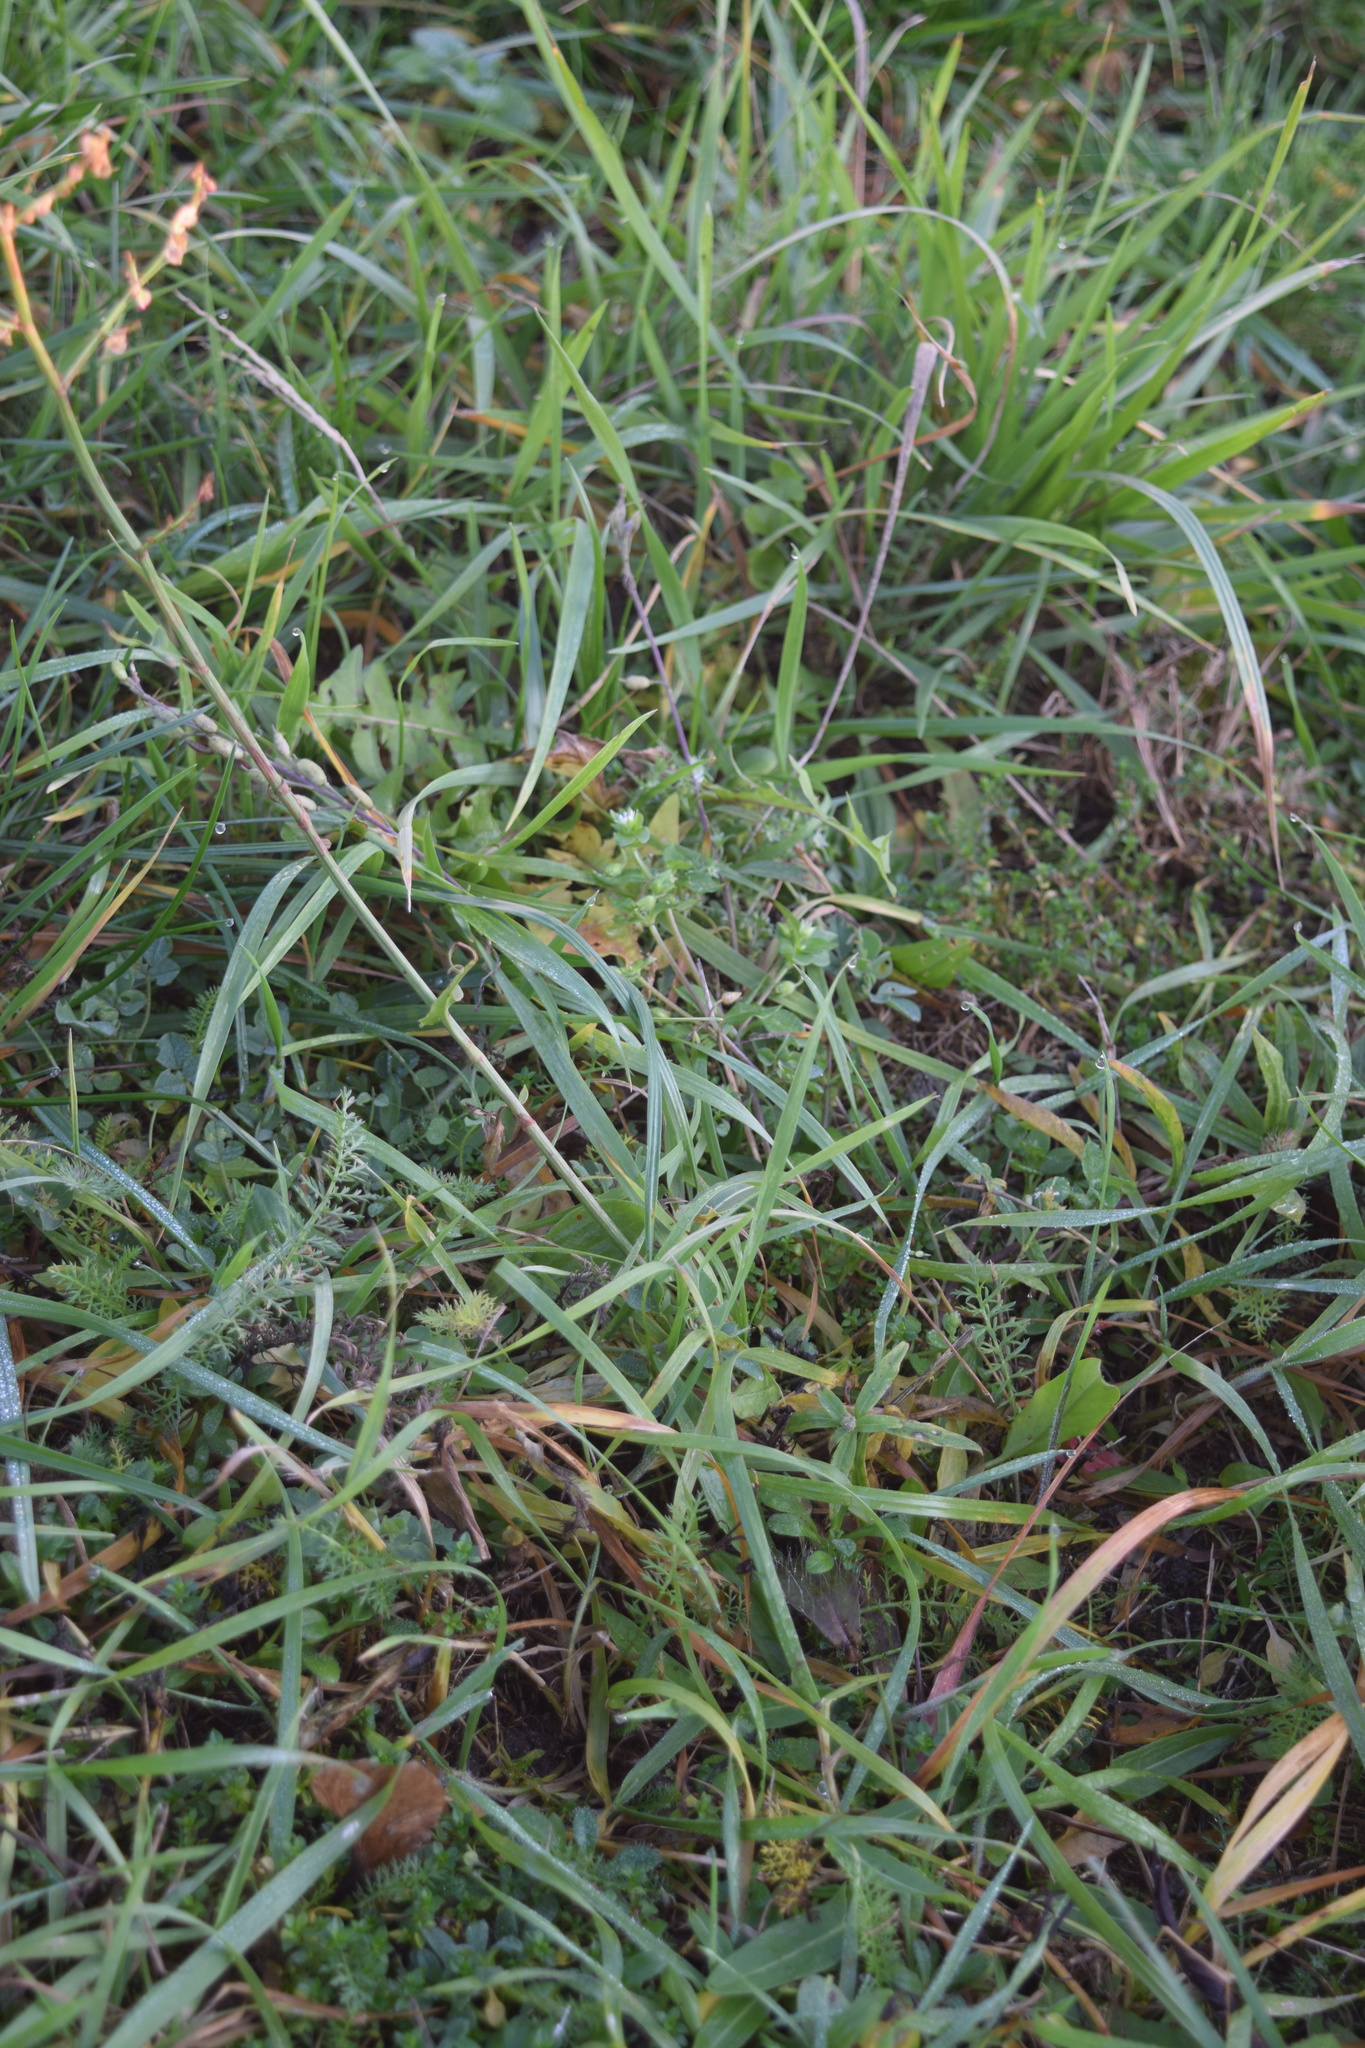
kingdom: Plantae
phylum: Tracheophyta
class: Magnoliopsida
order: Caryophyllales
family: Polygonaceae
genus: Rumex
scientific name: Rumex acetosa
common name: Garden sorrel
